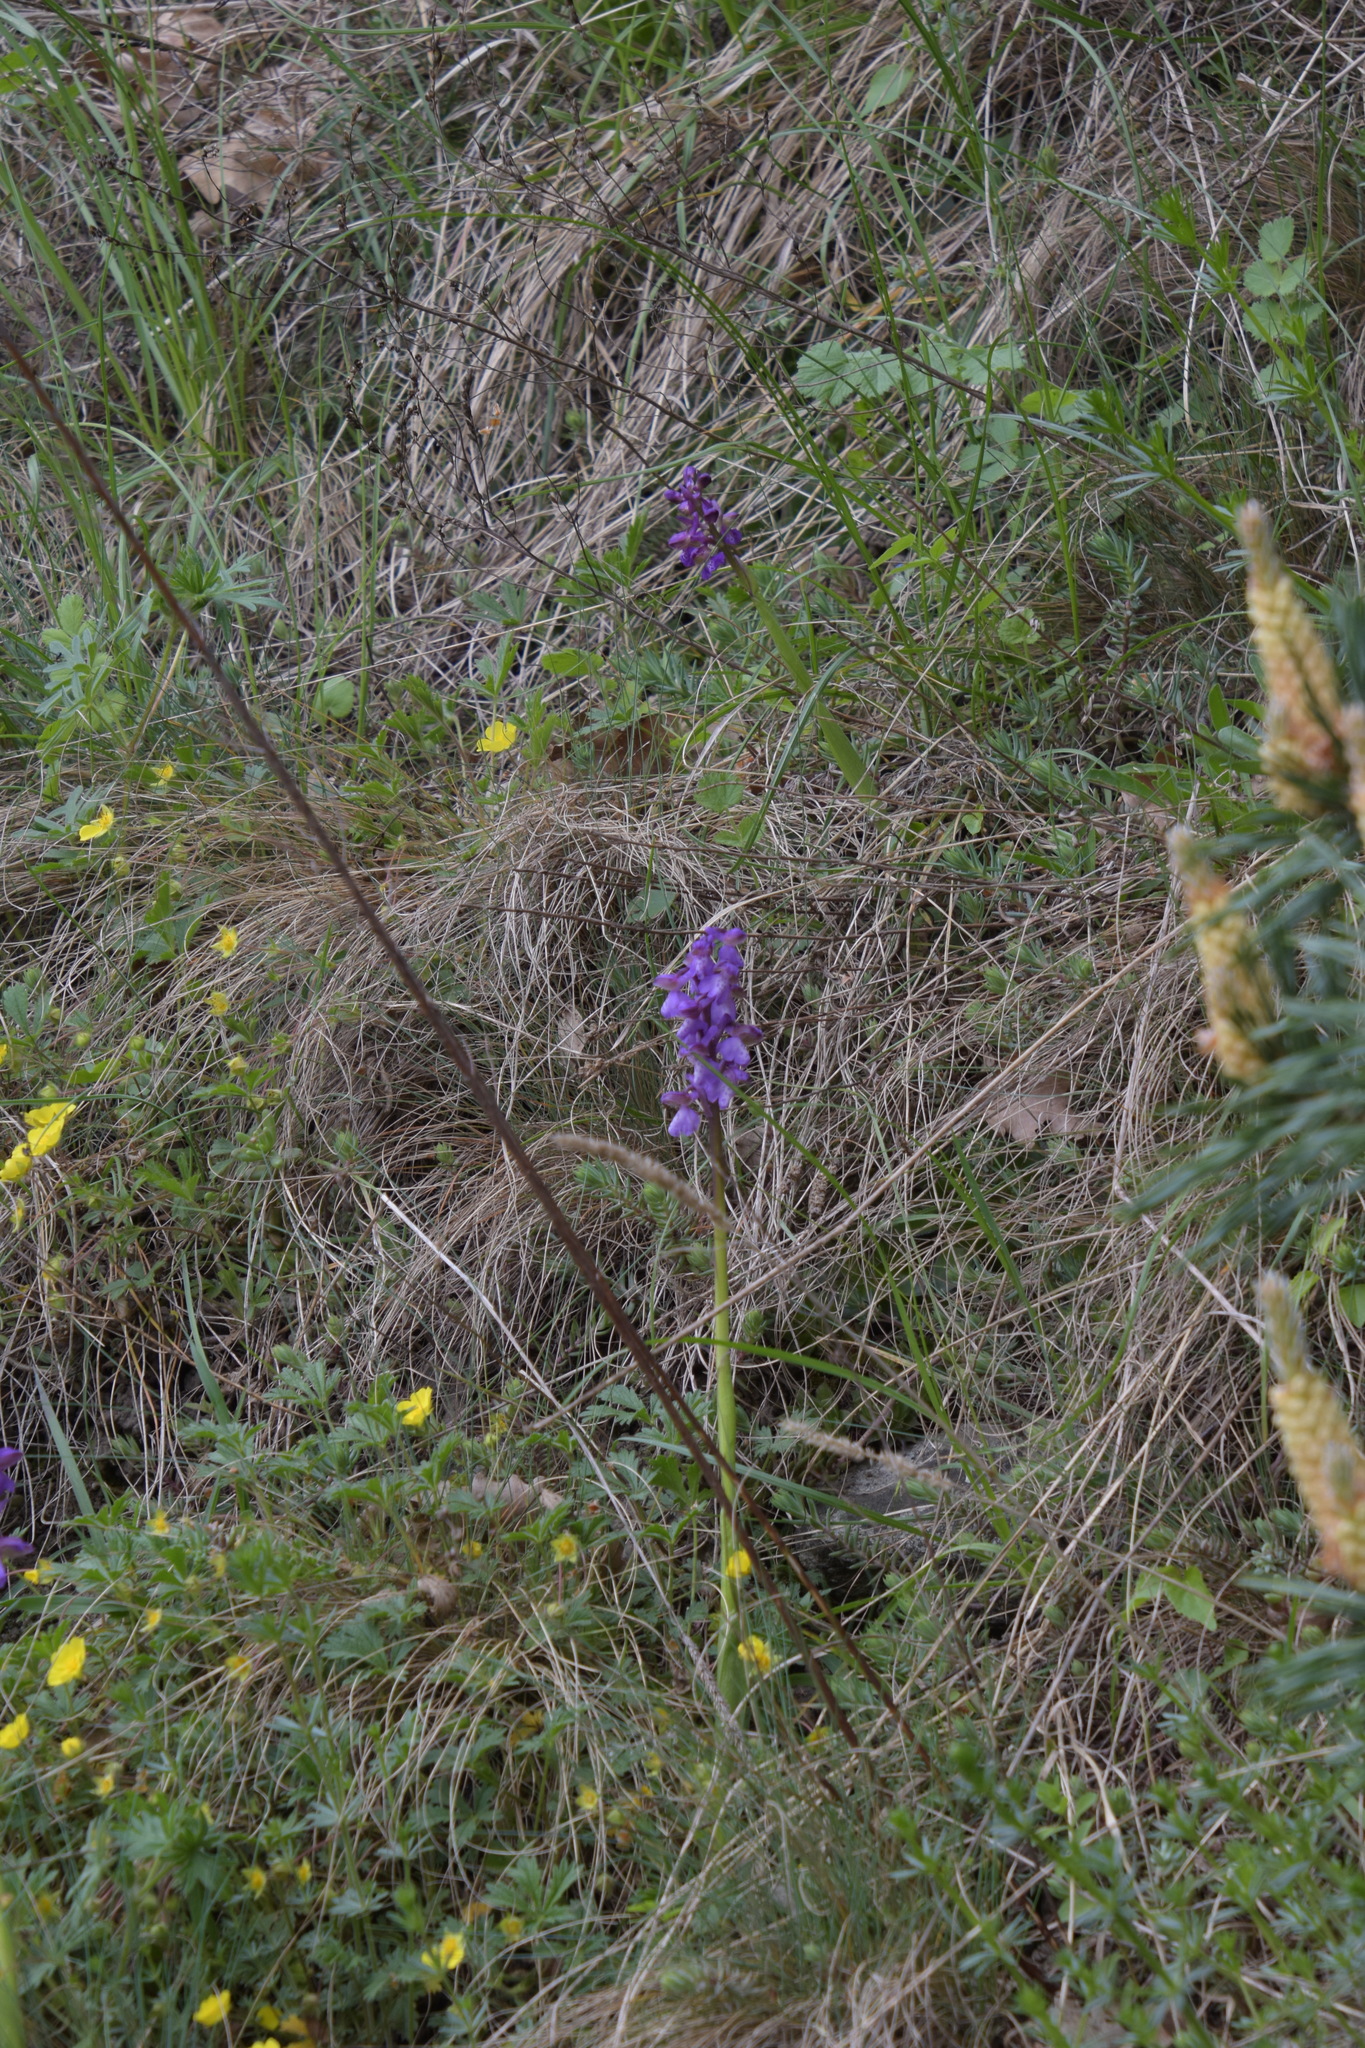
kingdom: Plantae
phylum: Tracheophyta
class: Liliopsida
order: Asparagales
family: Orchidaceae
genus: Anacamptis
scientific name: Anacamptis morio
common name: Green-winged orchid
